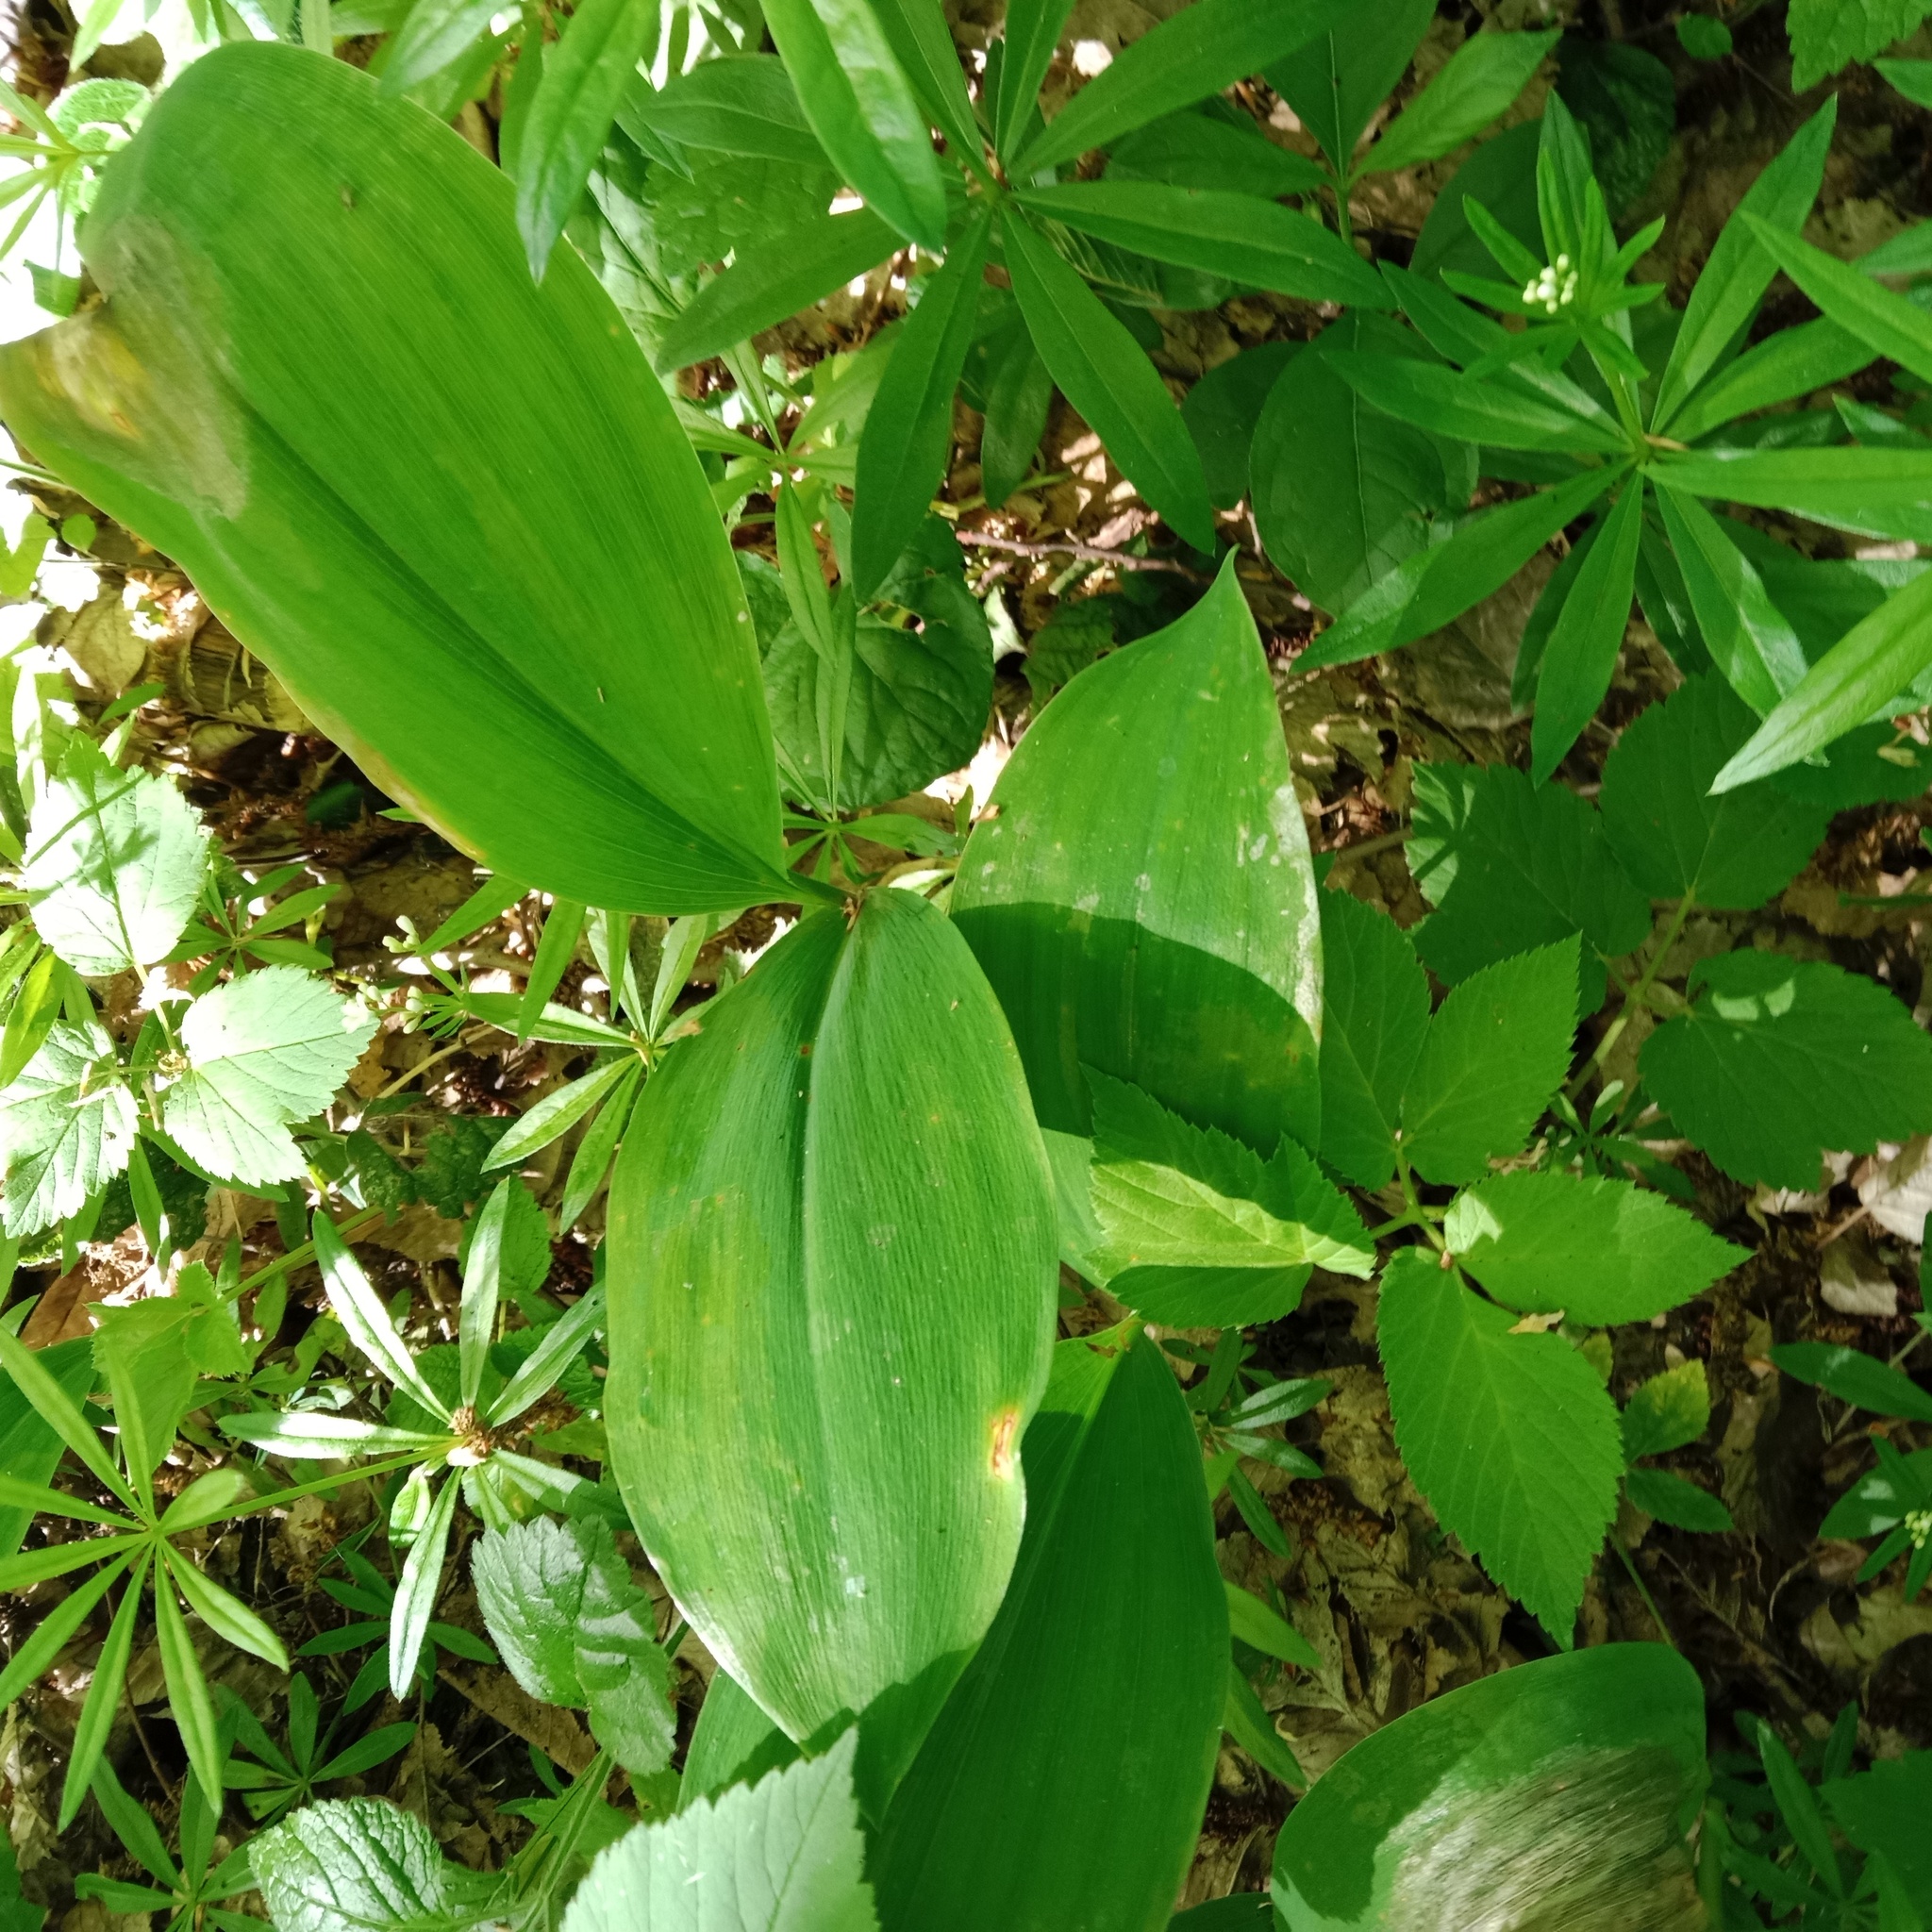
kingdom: Plantae
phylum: Tracheophyta
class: Liliopsida
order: Asparagales
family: Asparagaceae
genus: Convallaria
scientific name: Convallaria majalis
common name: Lily-of-the-valley
